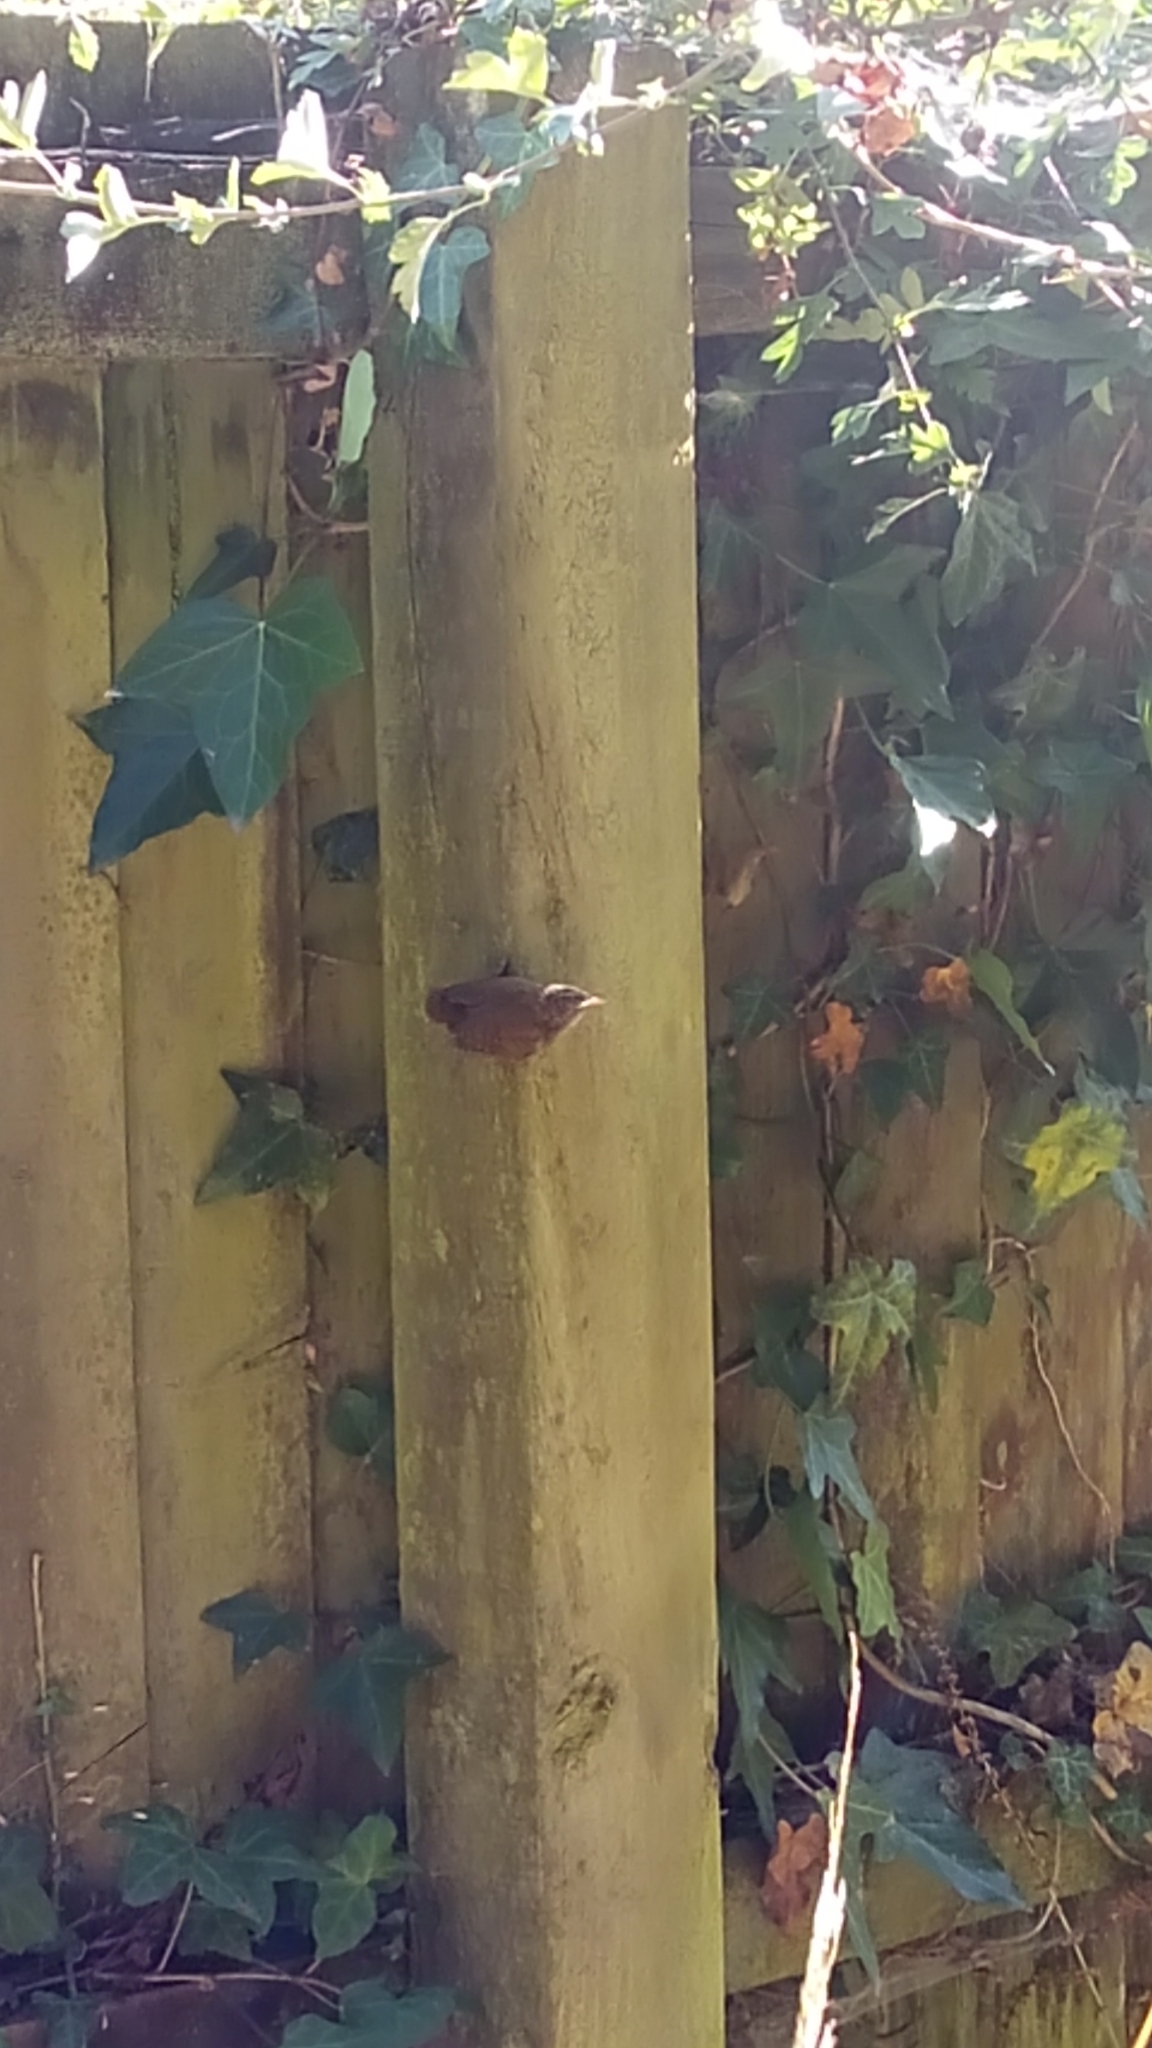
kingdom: Animalia
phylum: Chordata
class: Aves
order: Passeriformes
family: Troglodytidae
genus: Troglodytes
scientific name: Troglodytes troglodytes
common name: Eurasian wren
